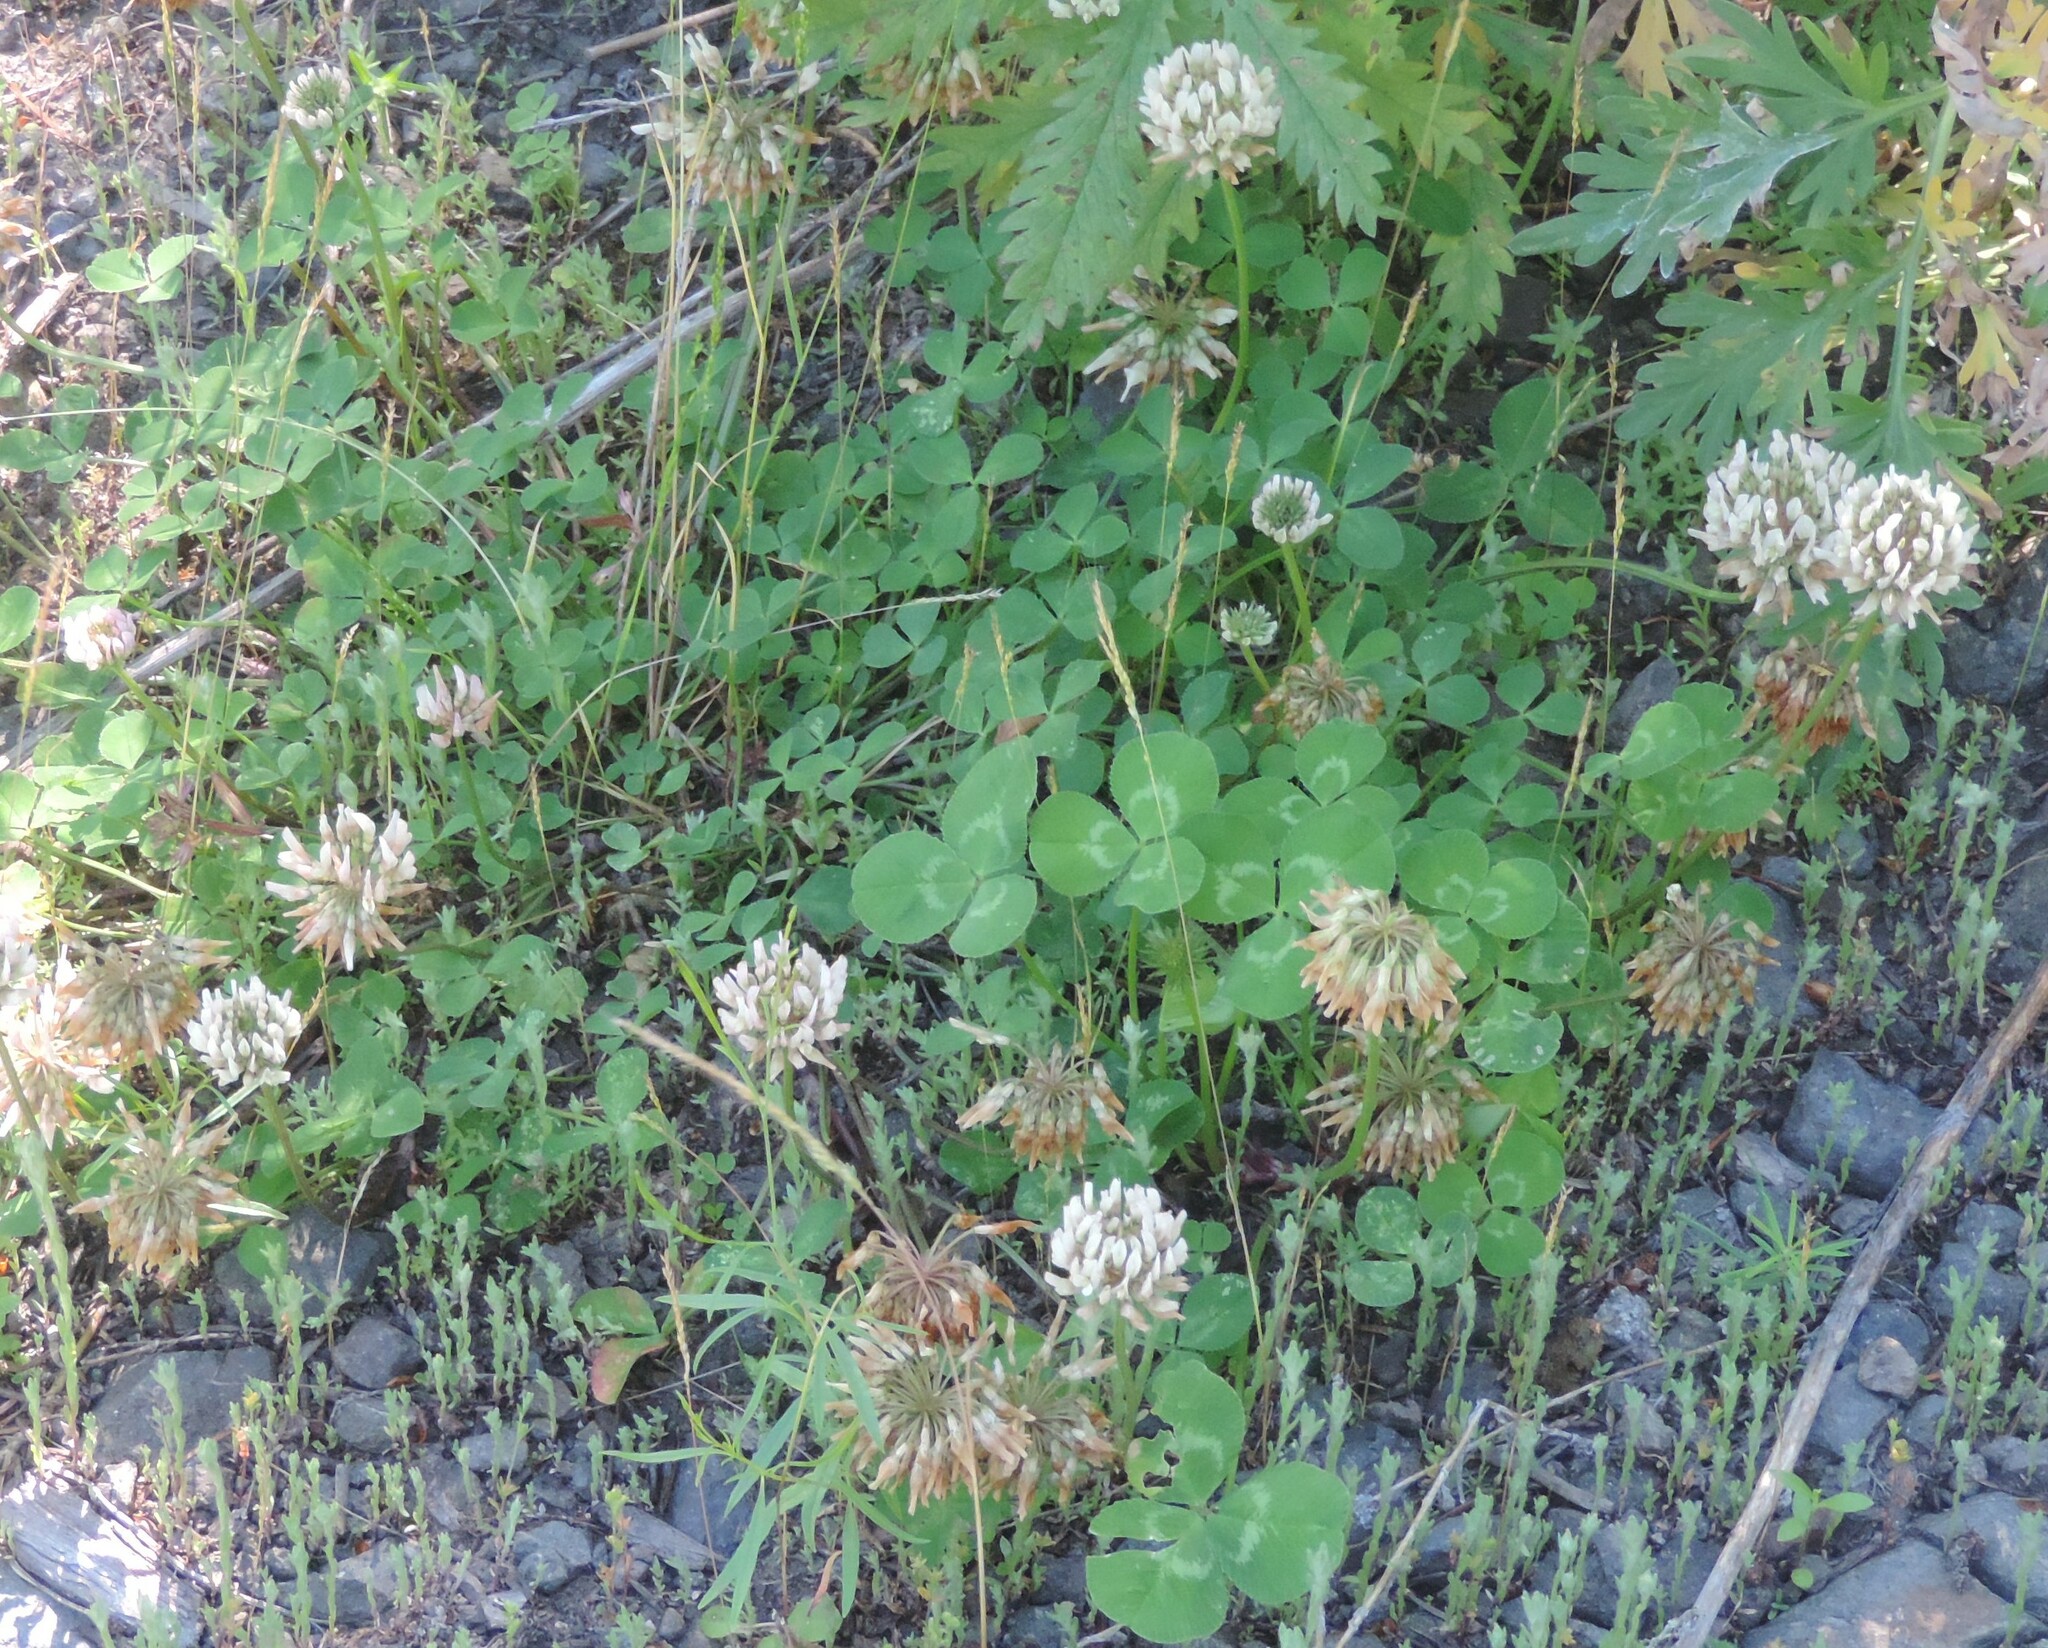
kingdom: Plantae
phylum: Tracheophyta
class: Magnoliopsida
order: Fabales
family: Fabaceae
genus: Trifolium
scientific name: Trifolium repens
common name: White clover
